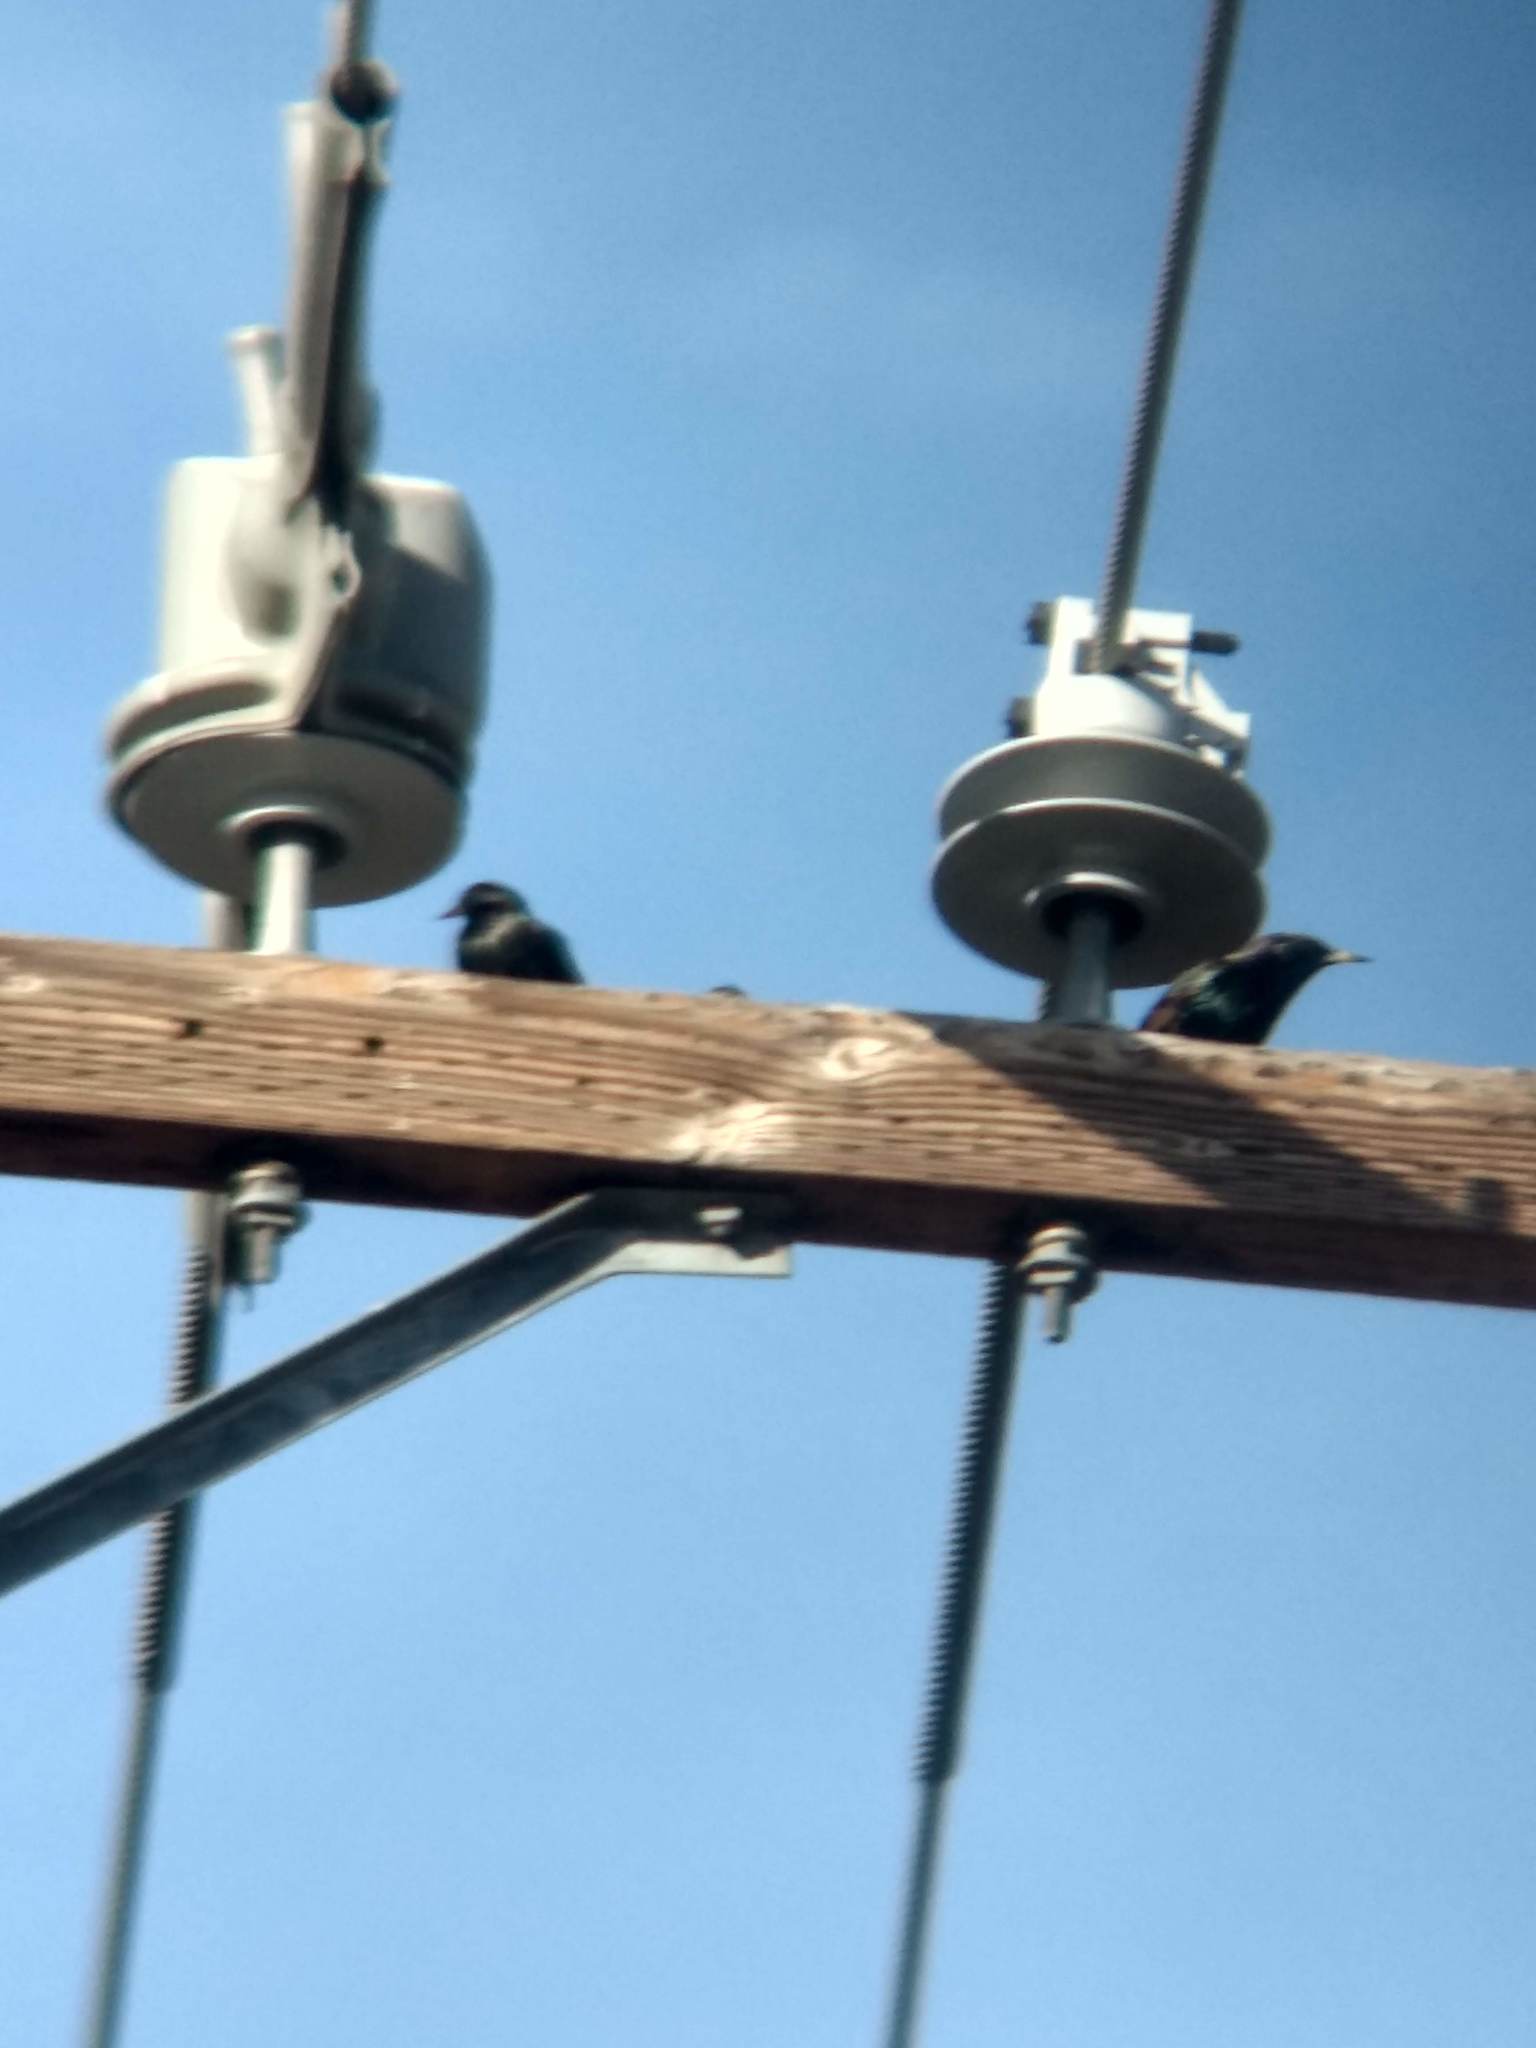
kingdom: Animalia
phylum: Chordata
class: Aves
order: Passeriformes
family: Sturnidae
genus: Sturnus
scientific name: Sturnus vulgaris
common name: Common starling
